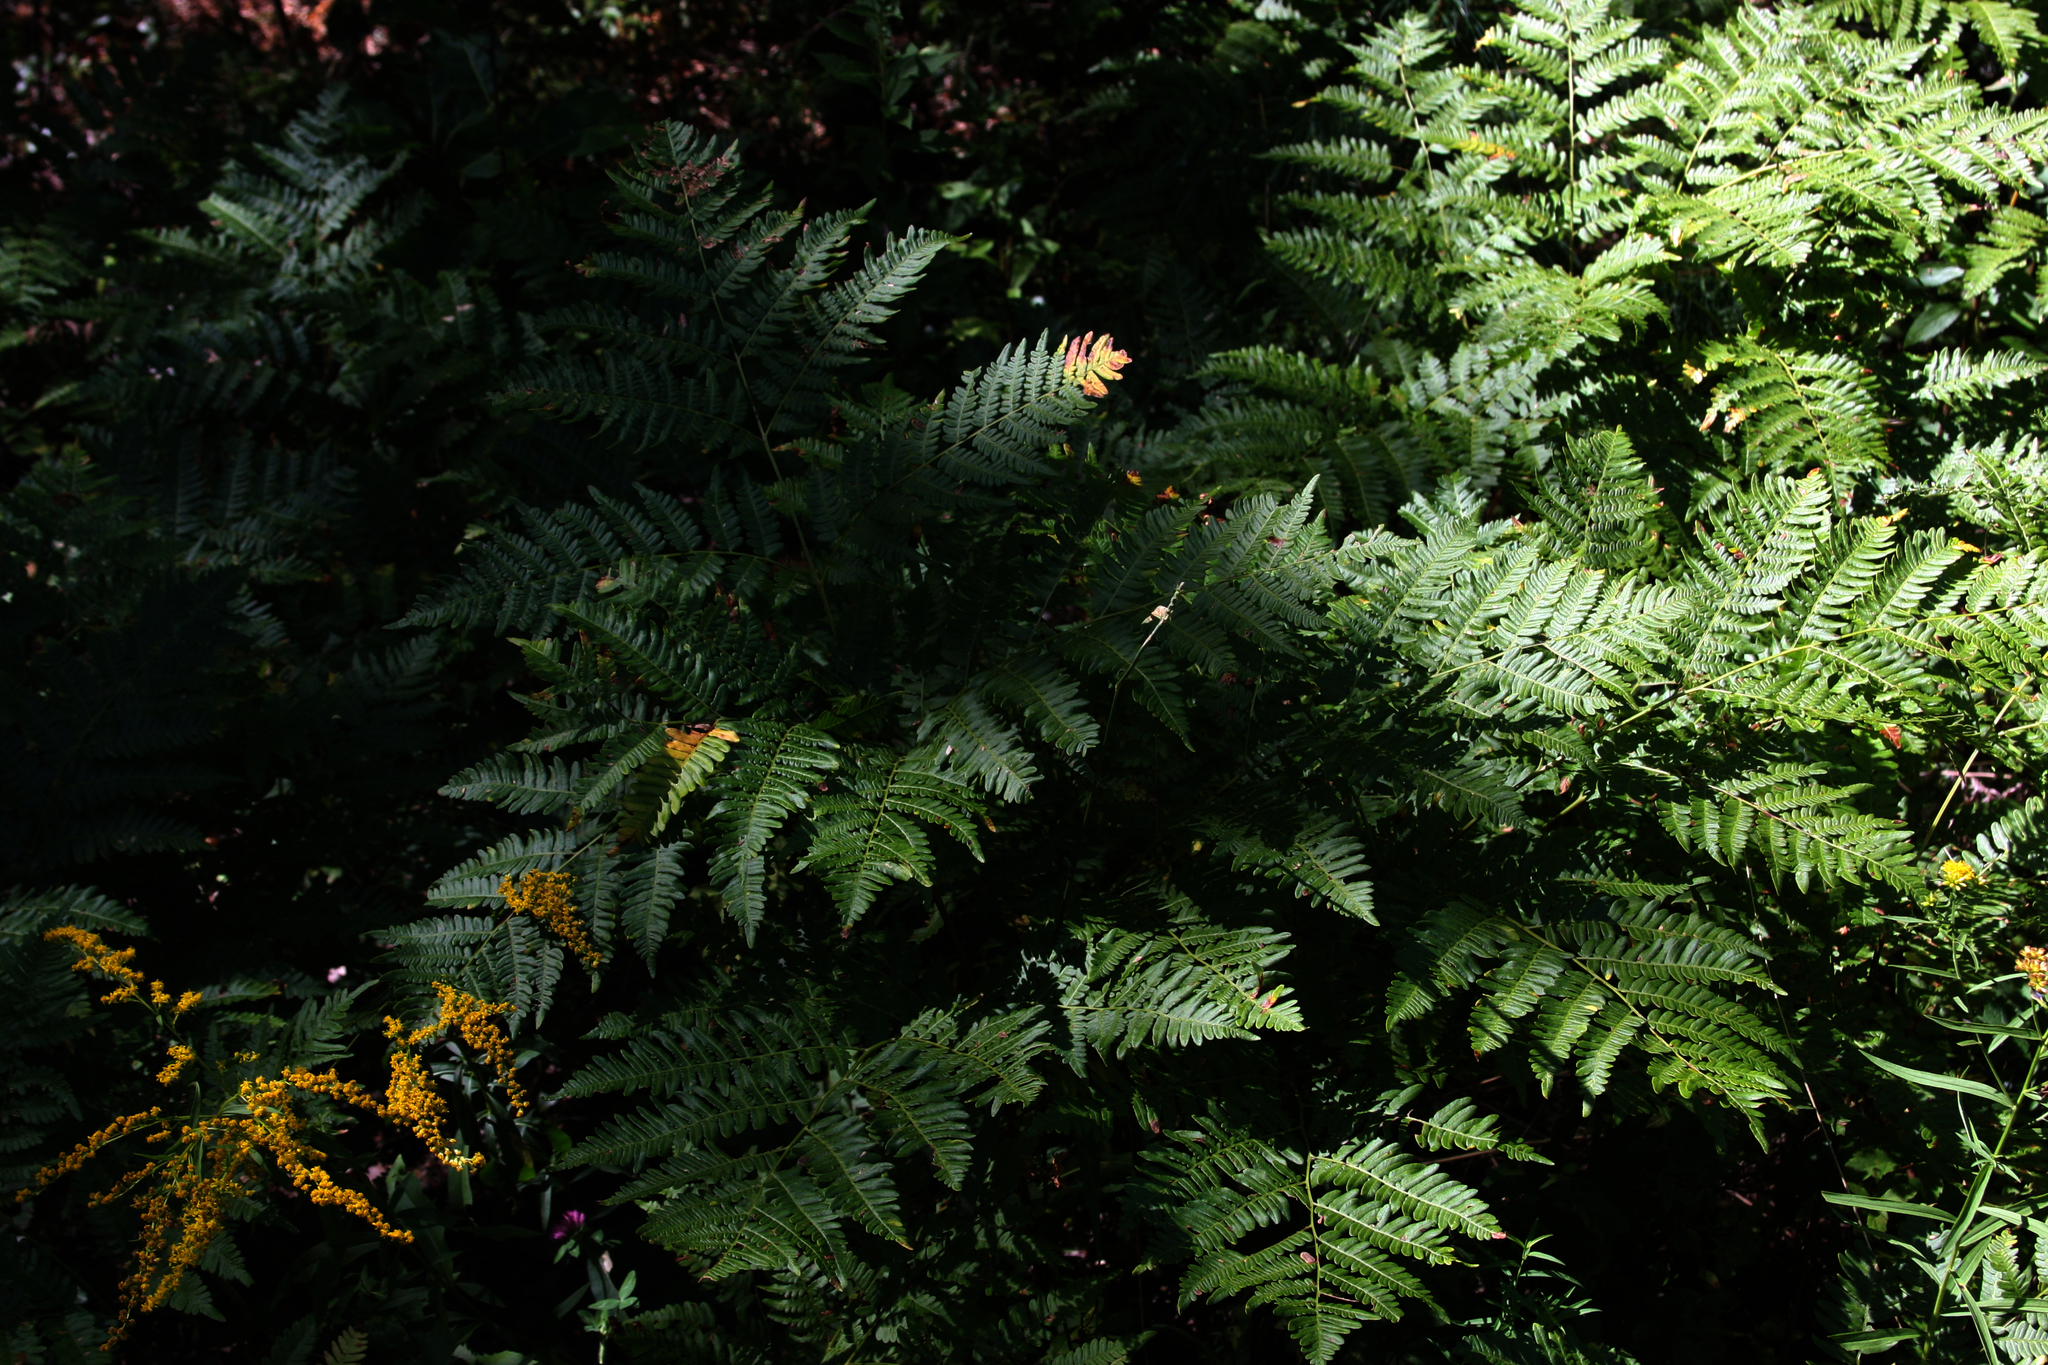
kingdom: Plantae
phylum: Tracheophyta
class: Polypodiopsida
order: Polypodiales
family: Dennstaedtiaceae
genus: Pteridium
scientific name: Pteridium aquilinum
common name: Bracken
